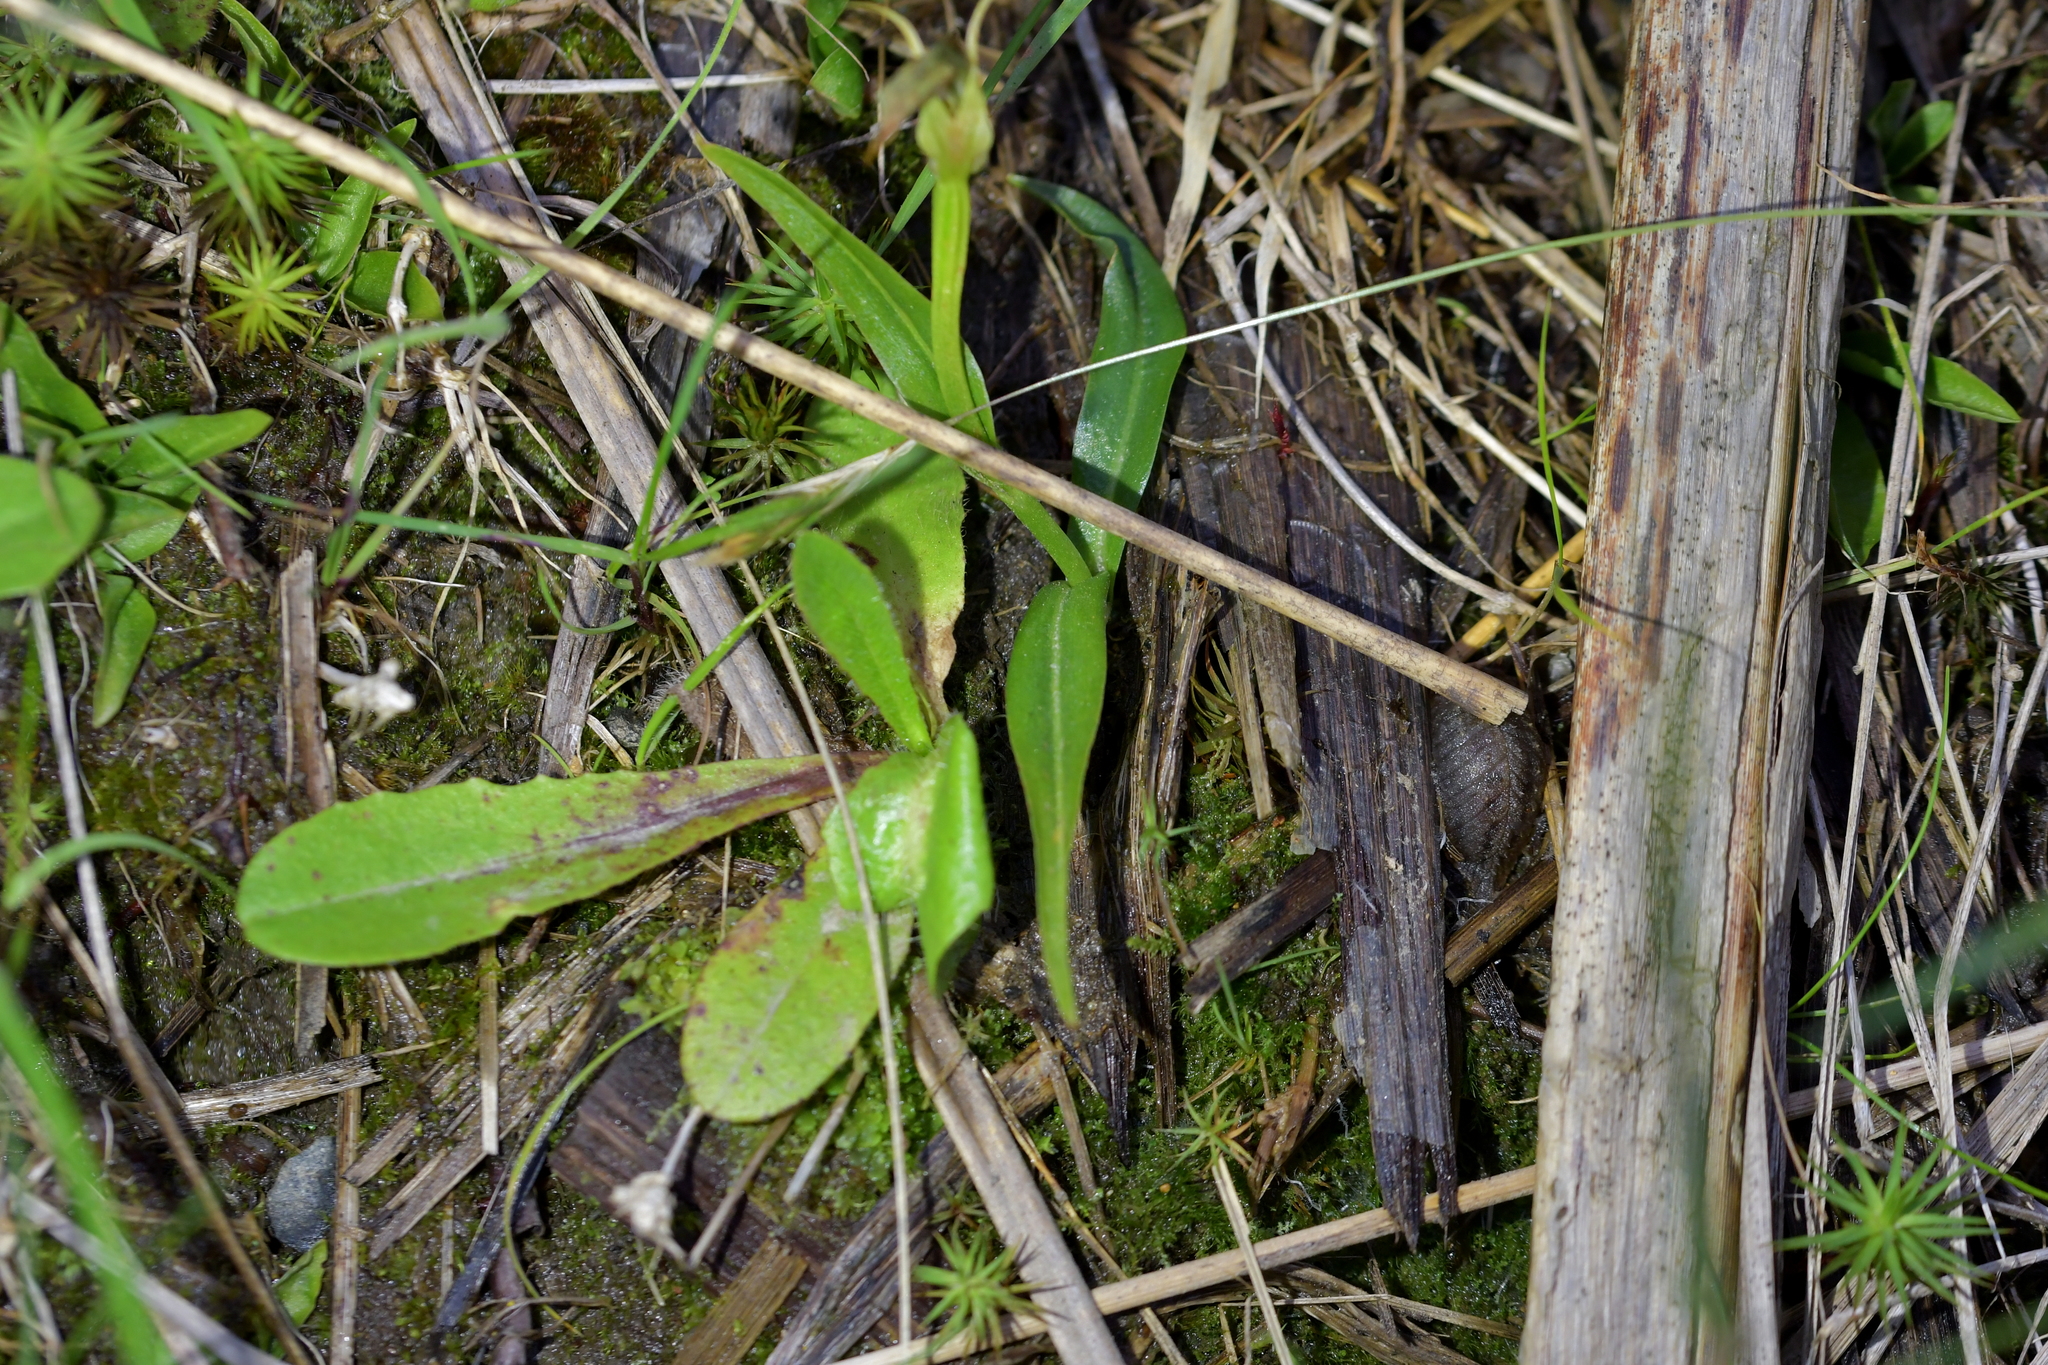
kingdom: Plantae
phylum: Tracheophyta
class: Liliopsida
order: Asparagales
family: Orchidaceae
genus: Pterostylis
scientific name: Pterostylis auriculata
